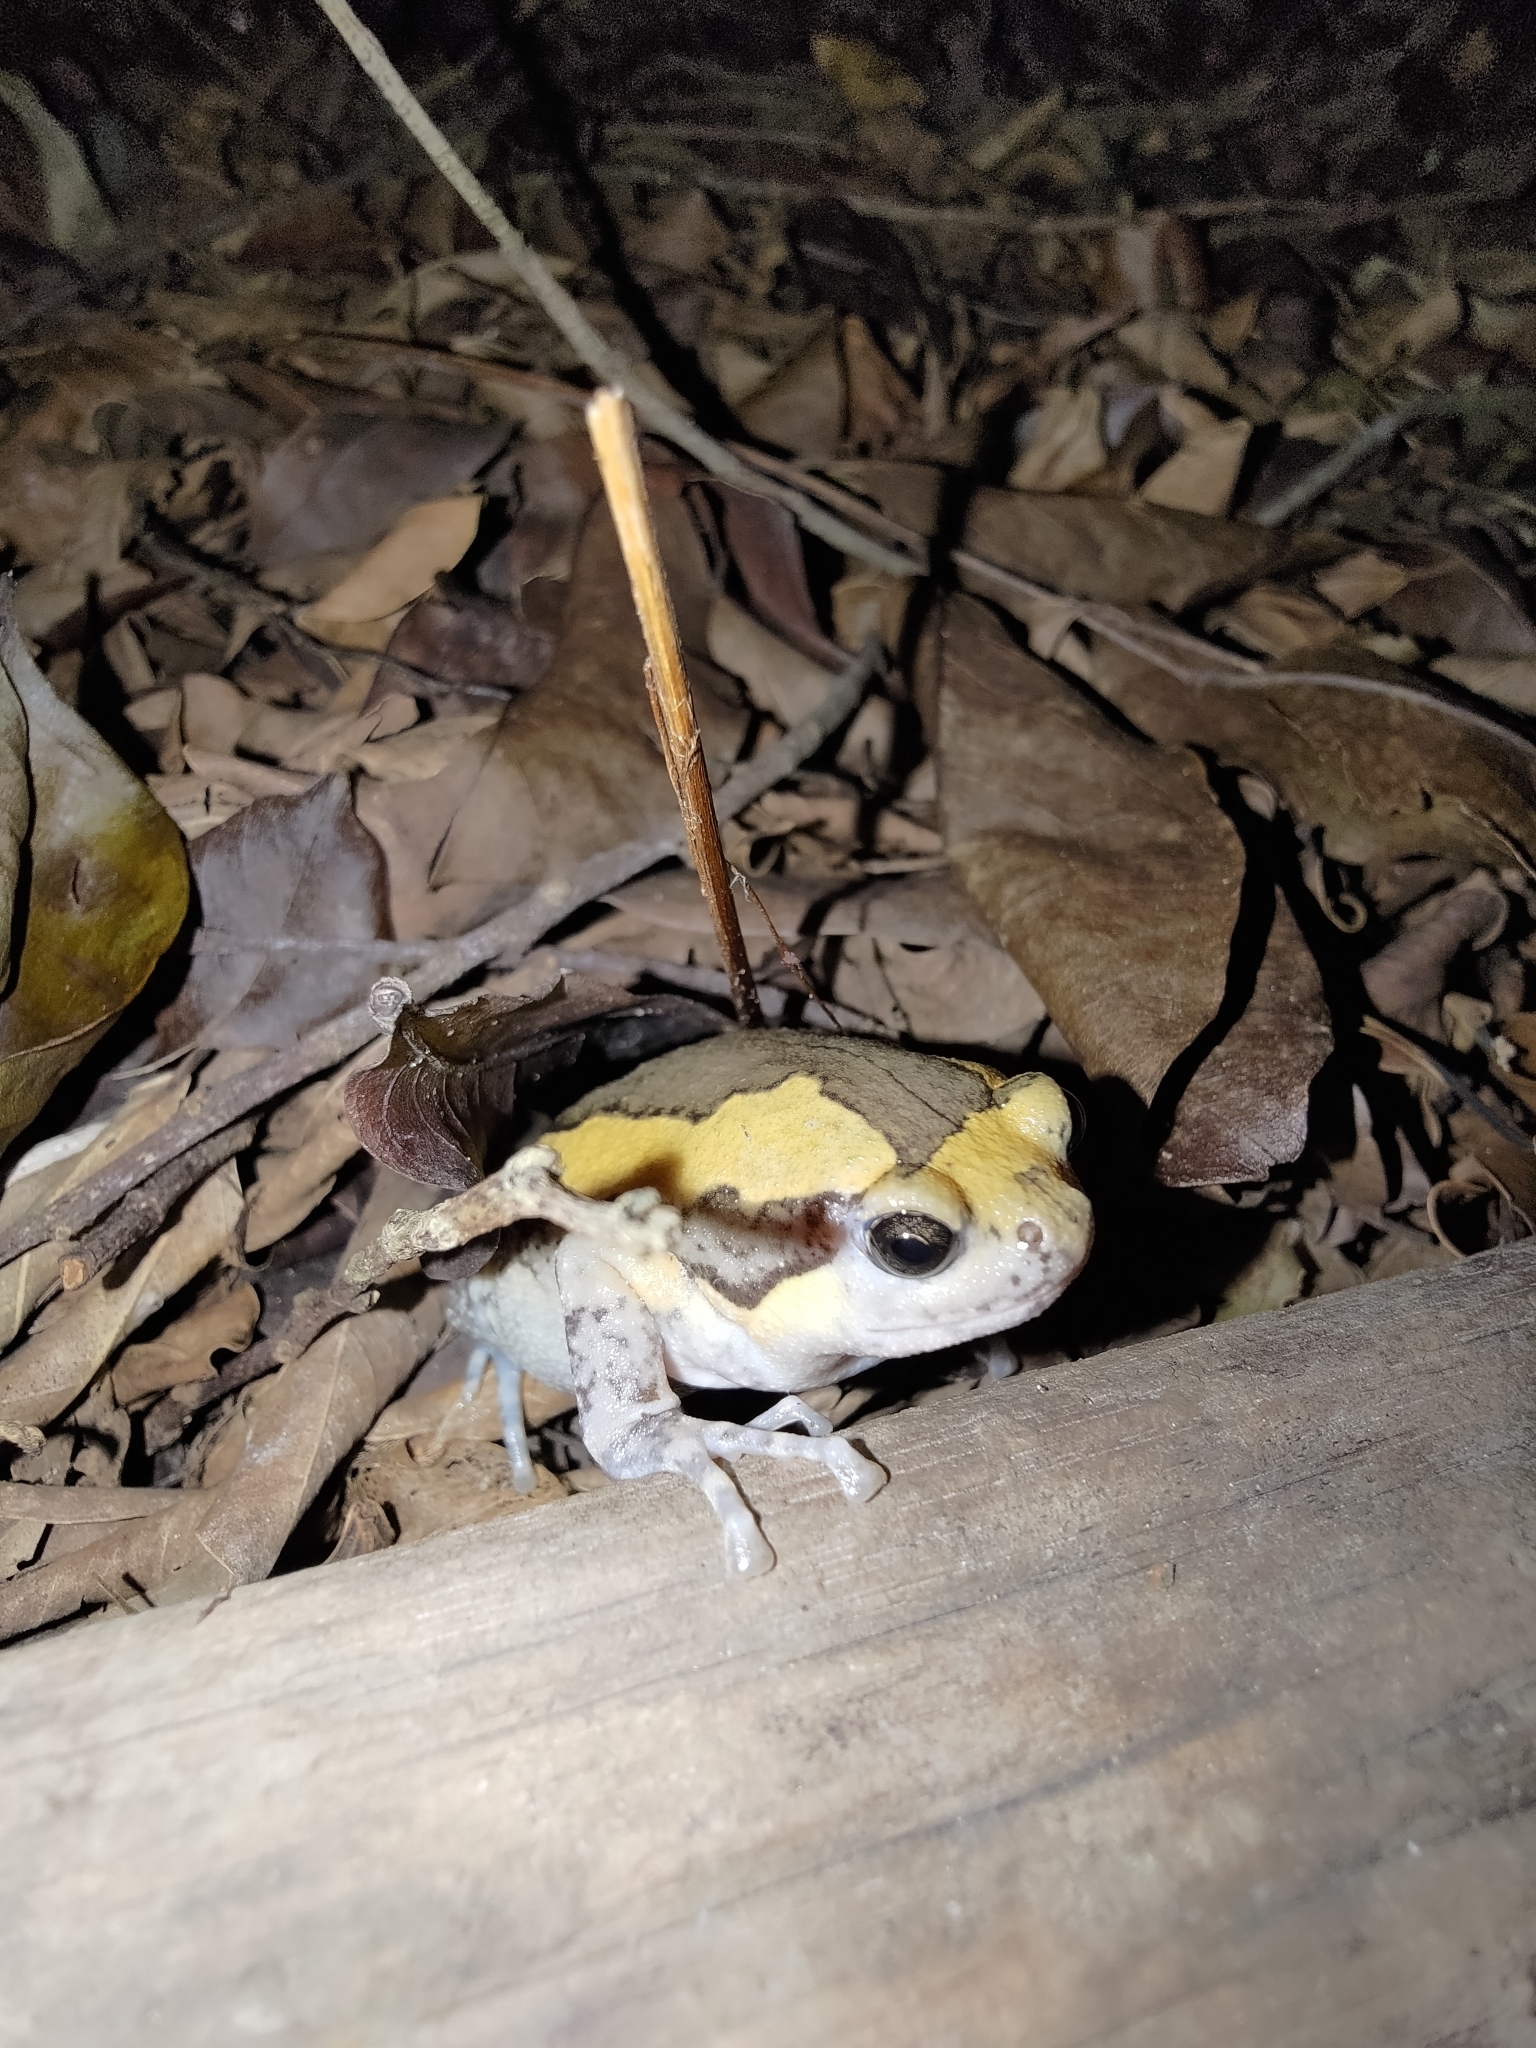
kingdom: Animalia
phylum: Chordata
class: Amphibia
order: Anura
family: Microhylidae
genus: Kaloula
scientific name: Kaloula pulchra
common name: Common,banded bullfrog
